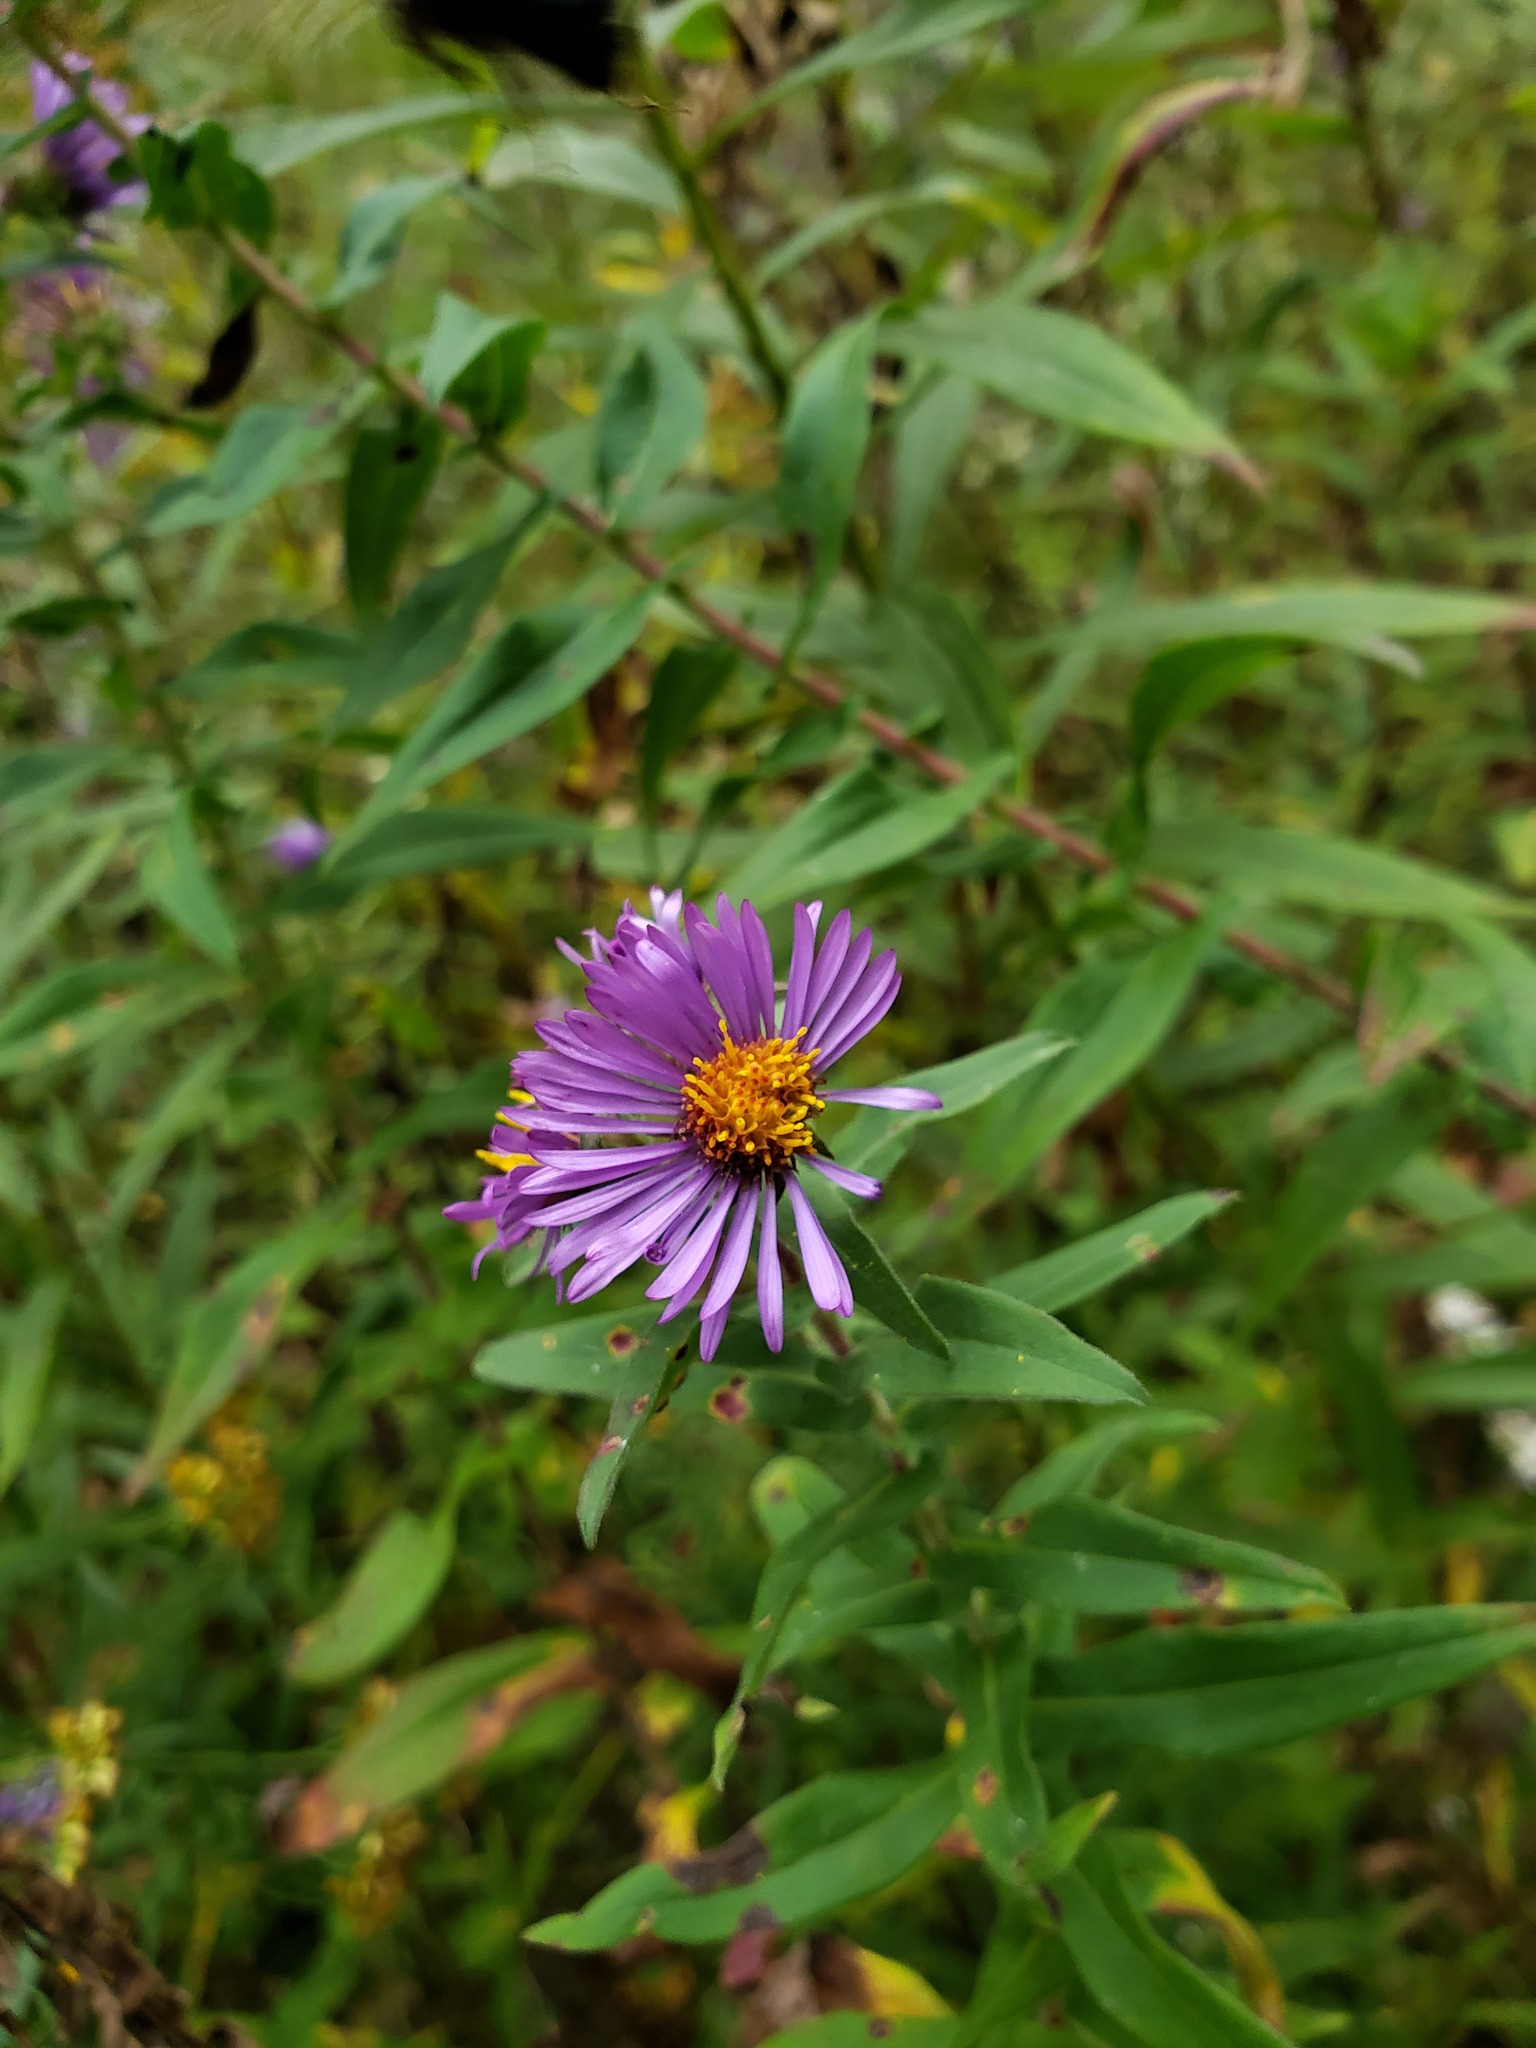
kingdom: Plantae
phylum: Tracheophyta
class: Magnoliopsida
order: Asterales
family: Asteraceae
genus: Symphyotrichum
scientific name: Symphyotrichum novae-angliae
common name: Michaelmas daisy
